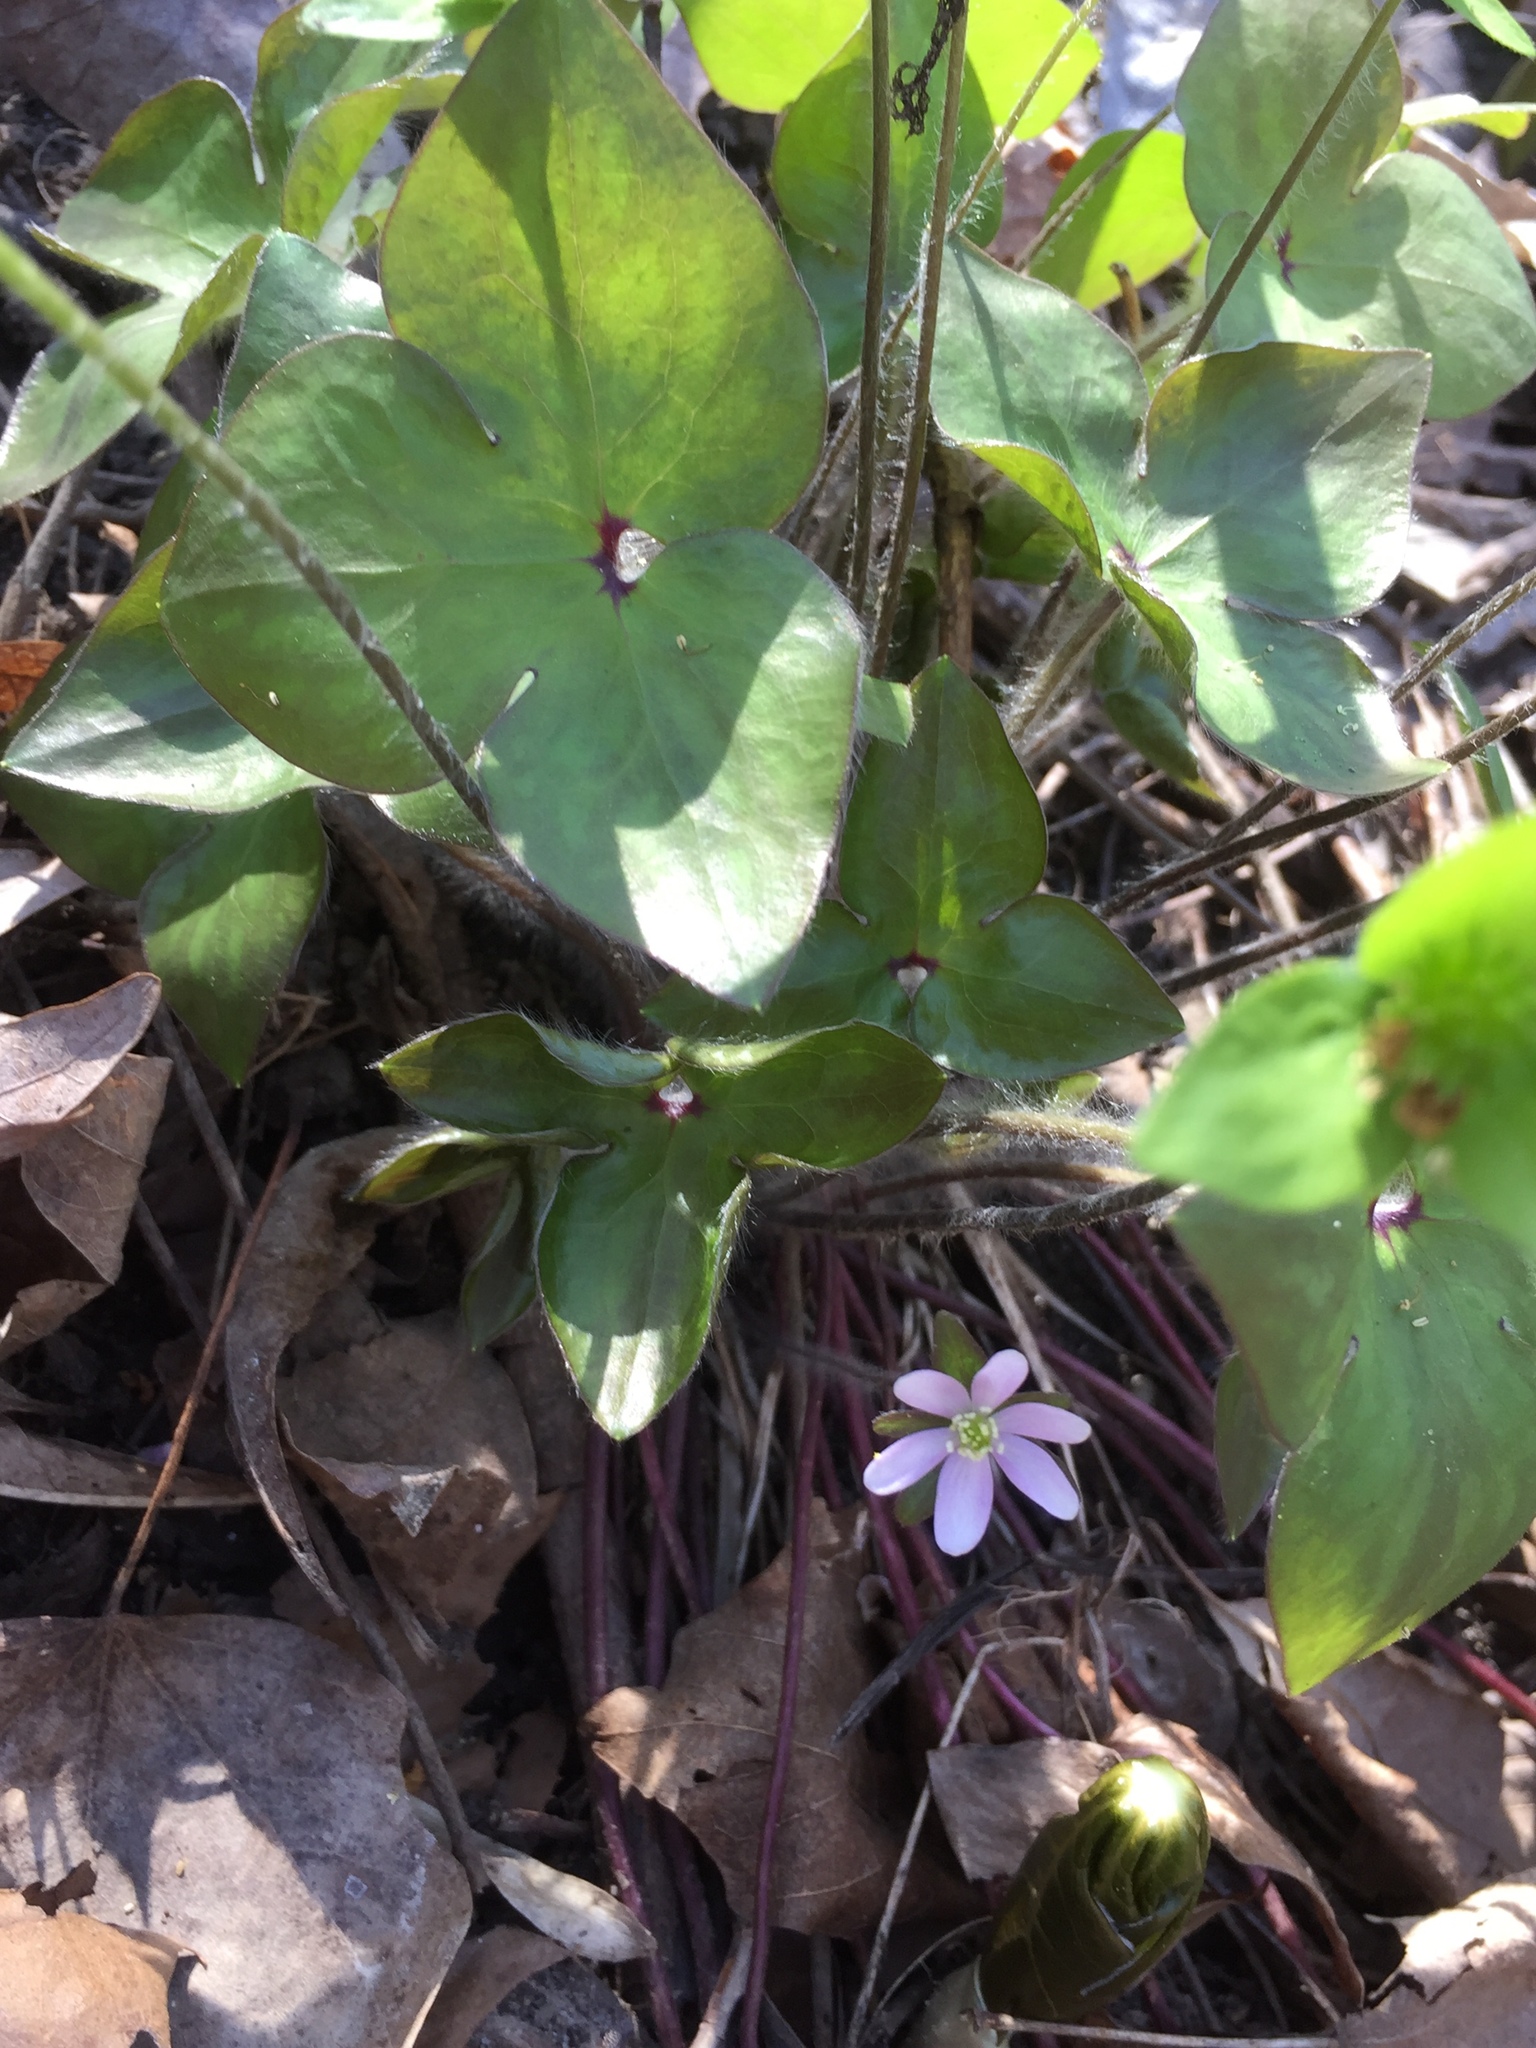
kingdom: Plantae
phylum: Tracheophyta
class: Magnoliopsida
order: Ranunculales
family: Ranunculaceae
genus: Hepatica
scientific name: Hepatica acutiloba
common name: Sharp-lobed hepatica
